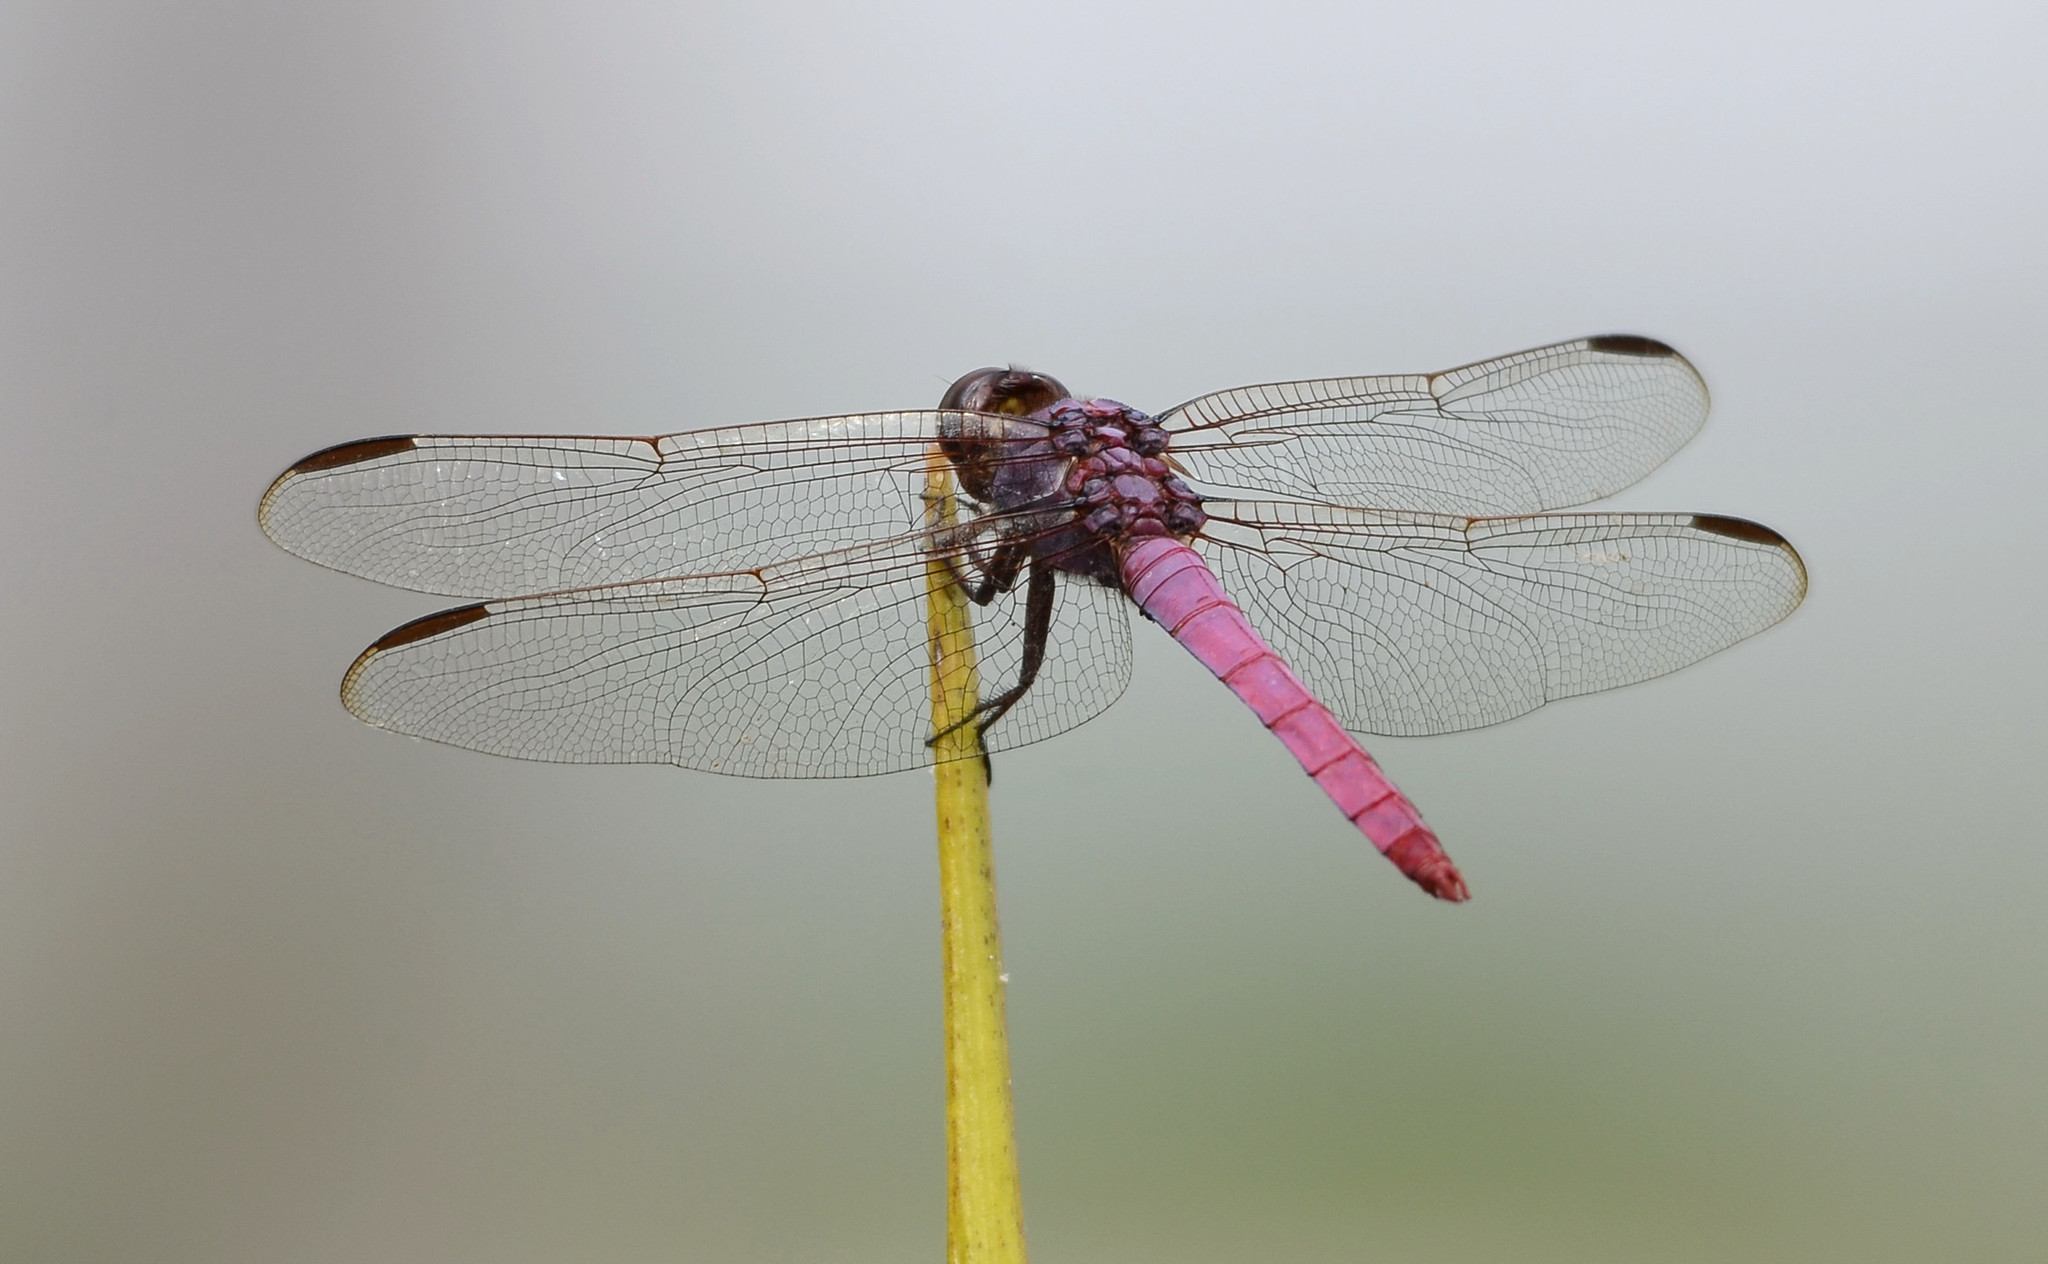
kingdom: Animalia
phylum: Arthropoda
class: Insecta
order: Odonata
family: Libellulidae
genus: Orthemis
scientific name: Orthemis ferruginea
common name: Roseate skimmer
